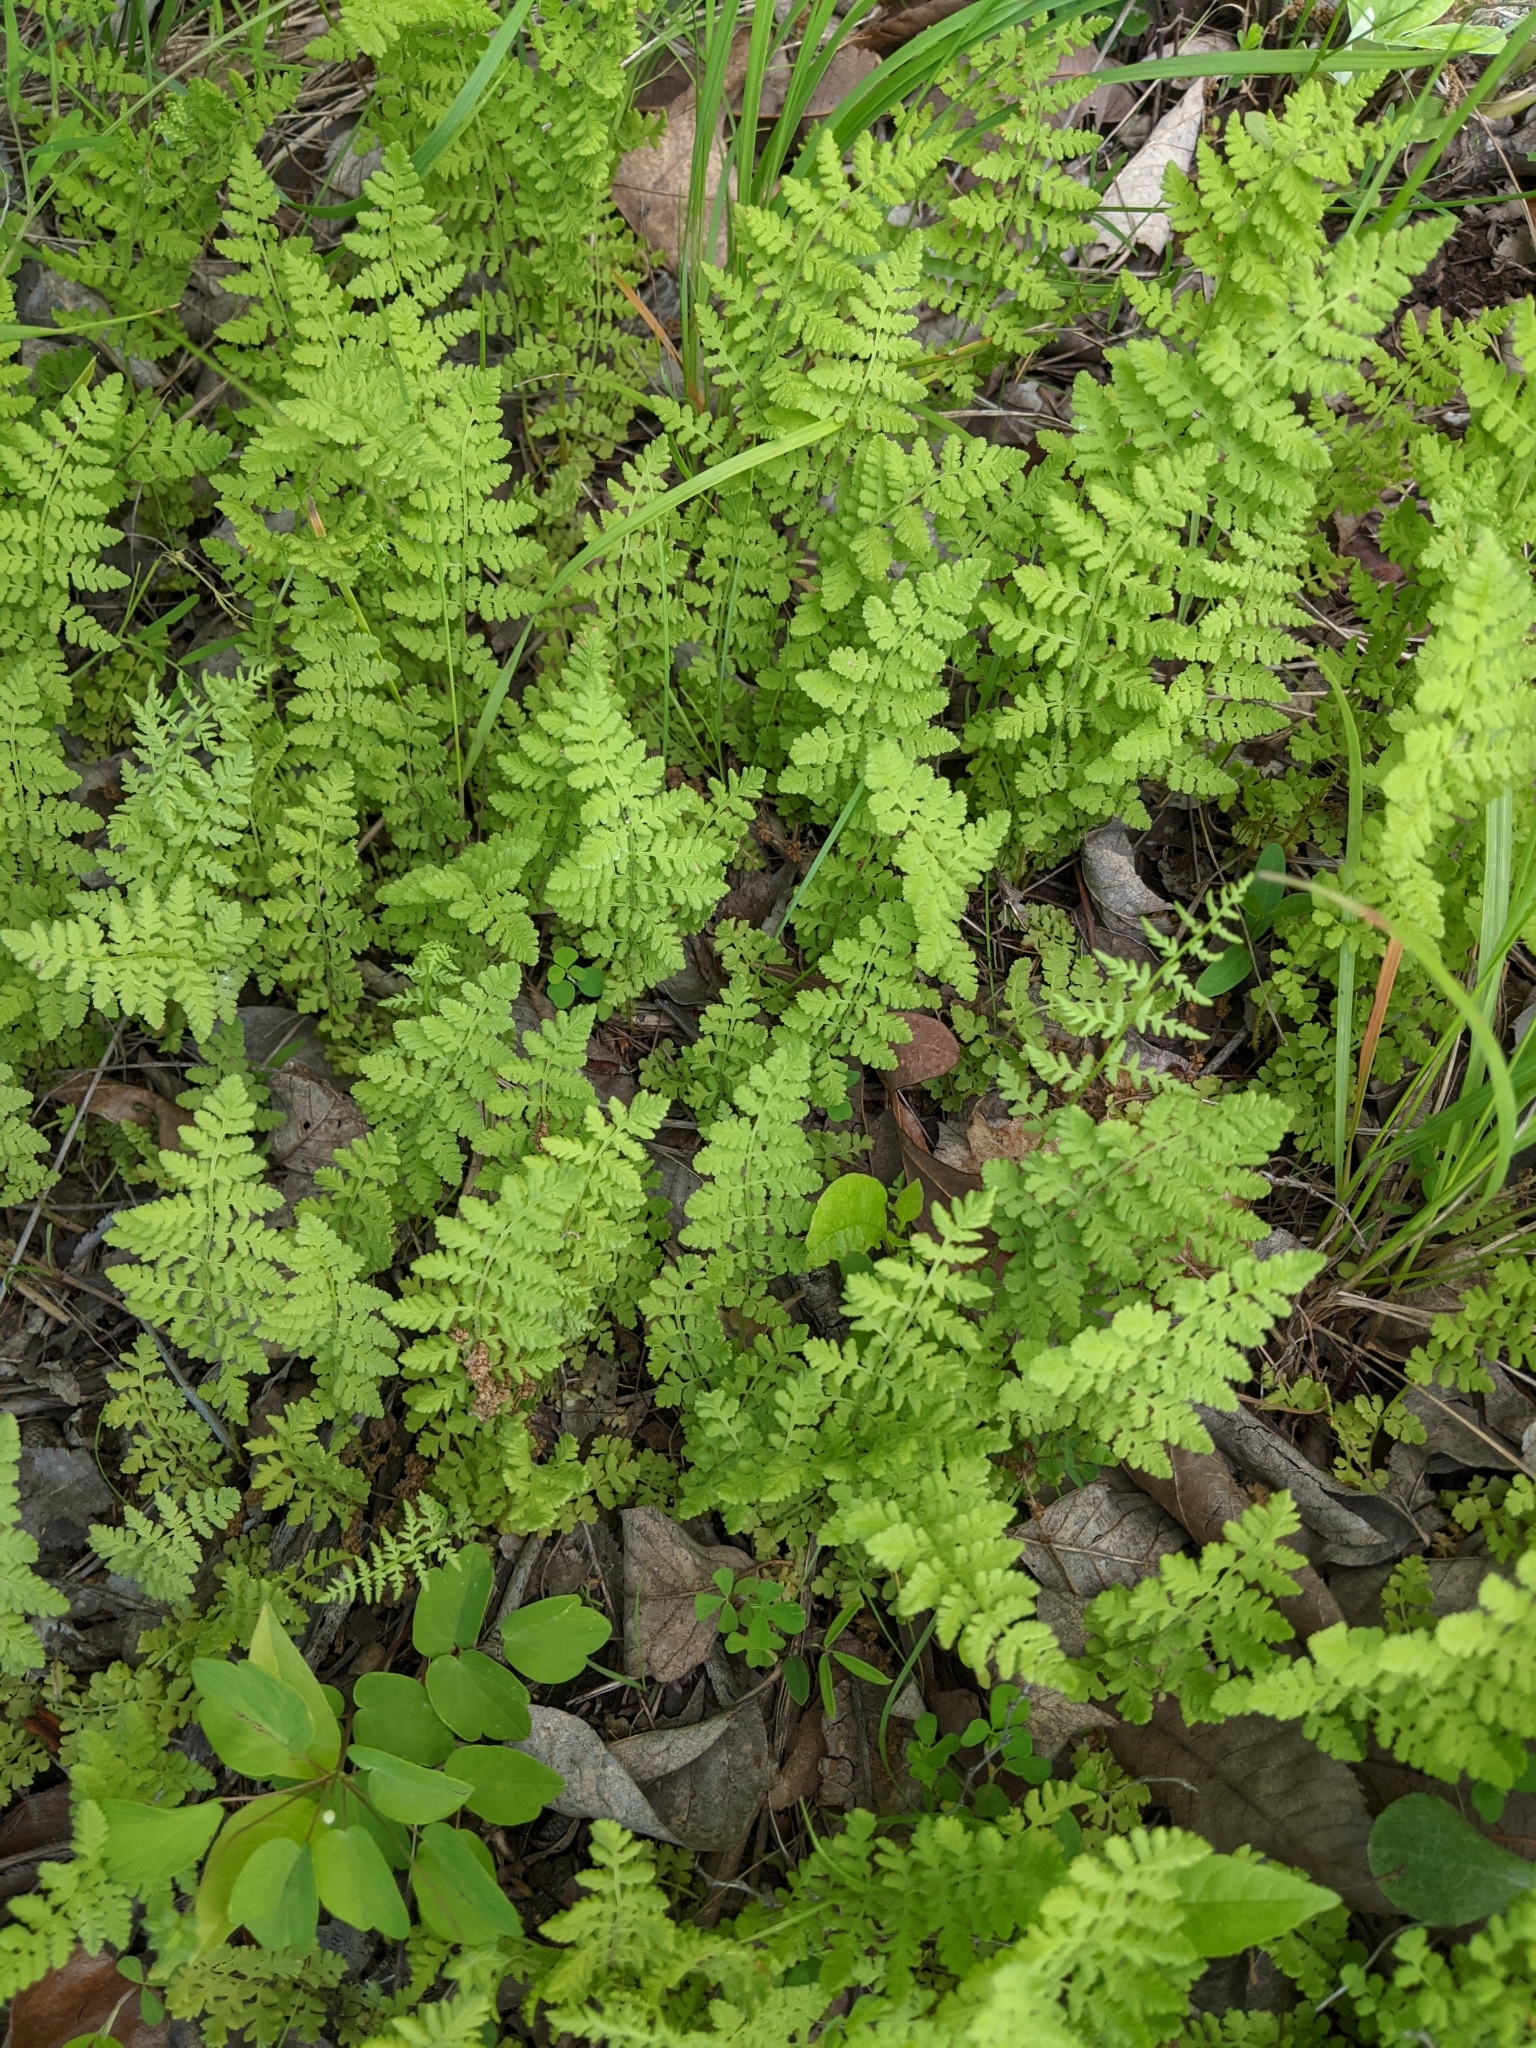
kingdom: Plantae
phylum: Tracheophyta
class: Polypodiopsida
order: Polypodiales
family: Woodsiaceae
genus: Physematium
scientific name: Physematium obtusum
